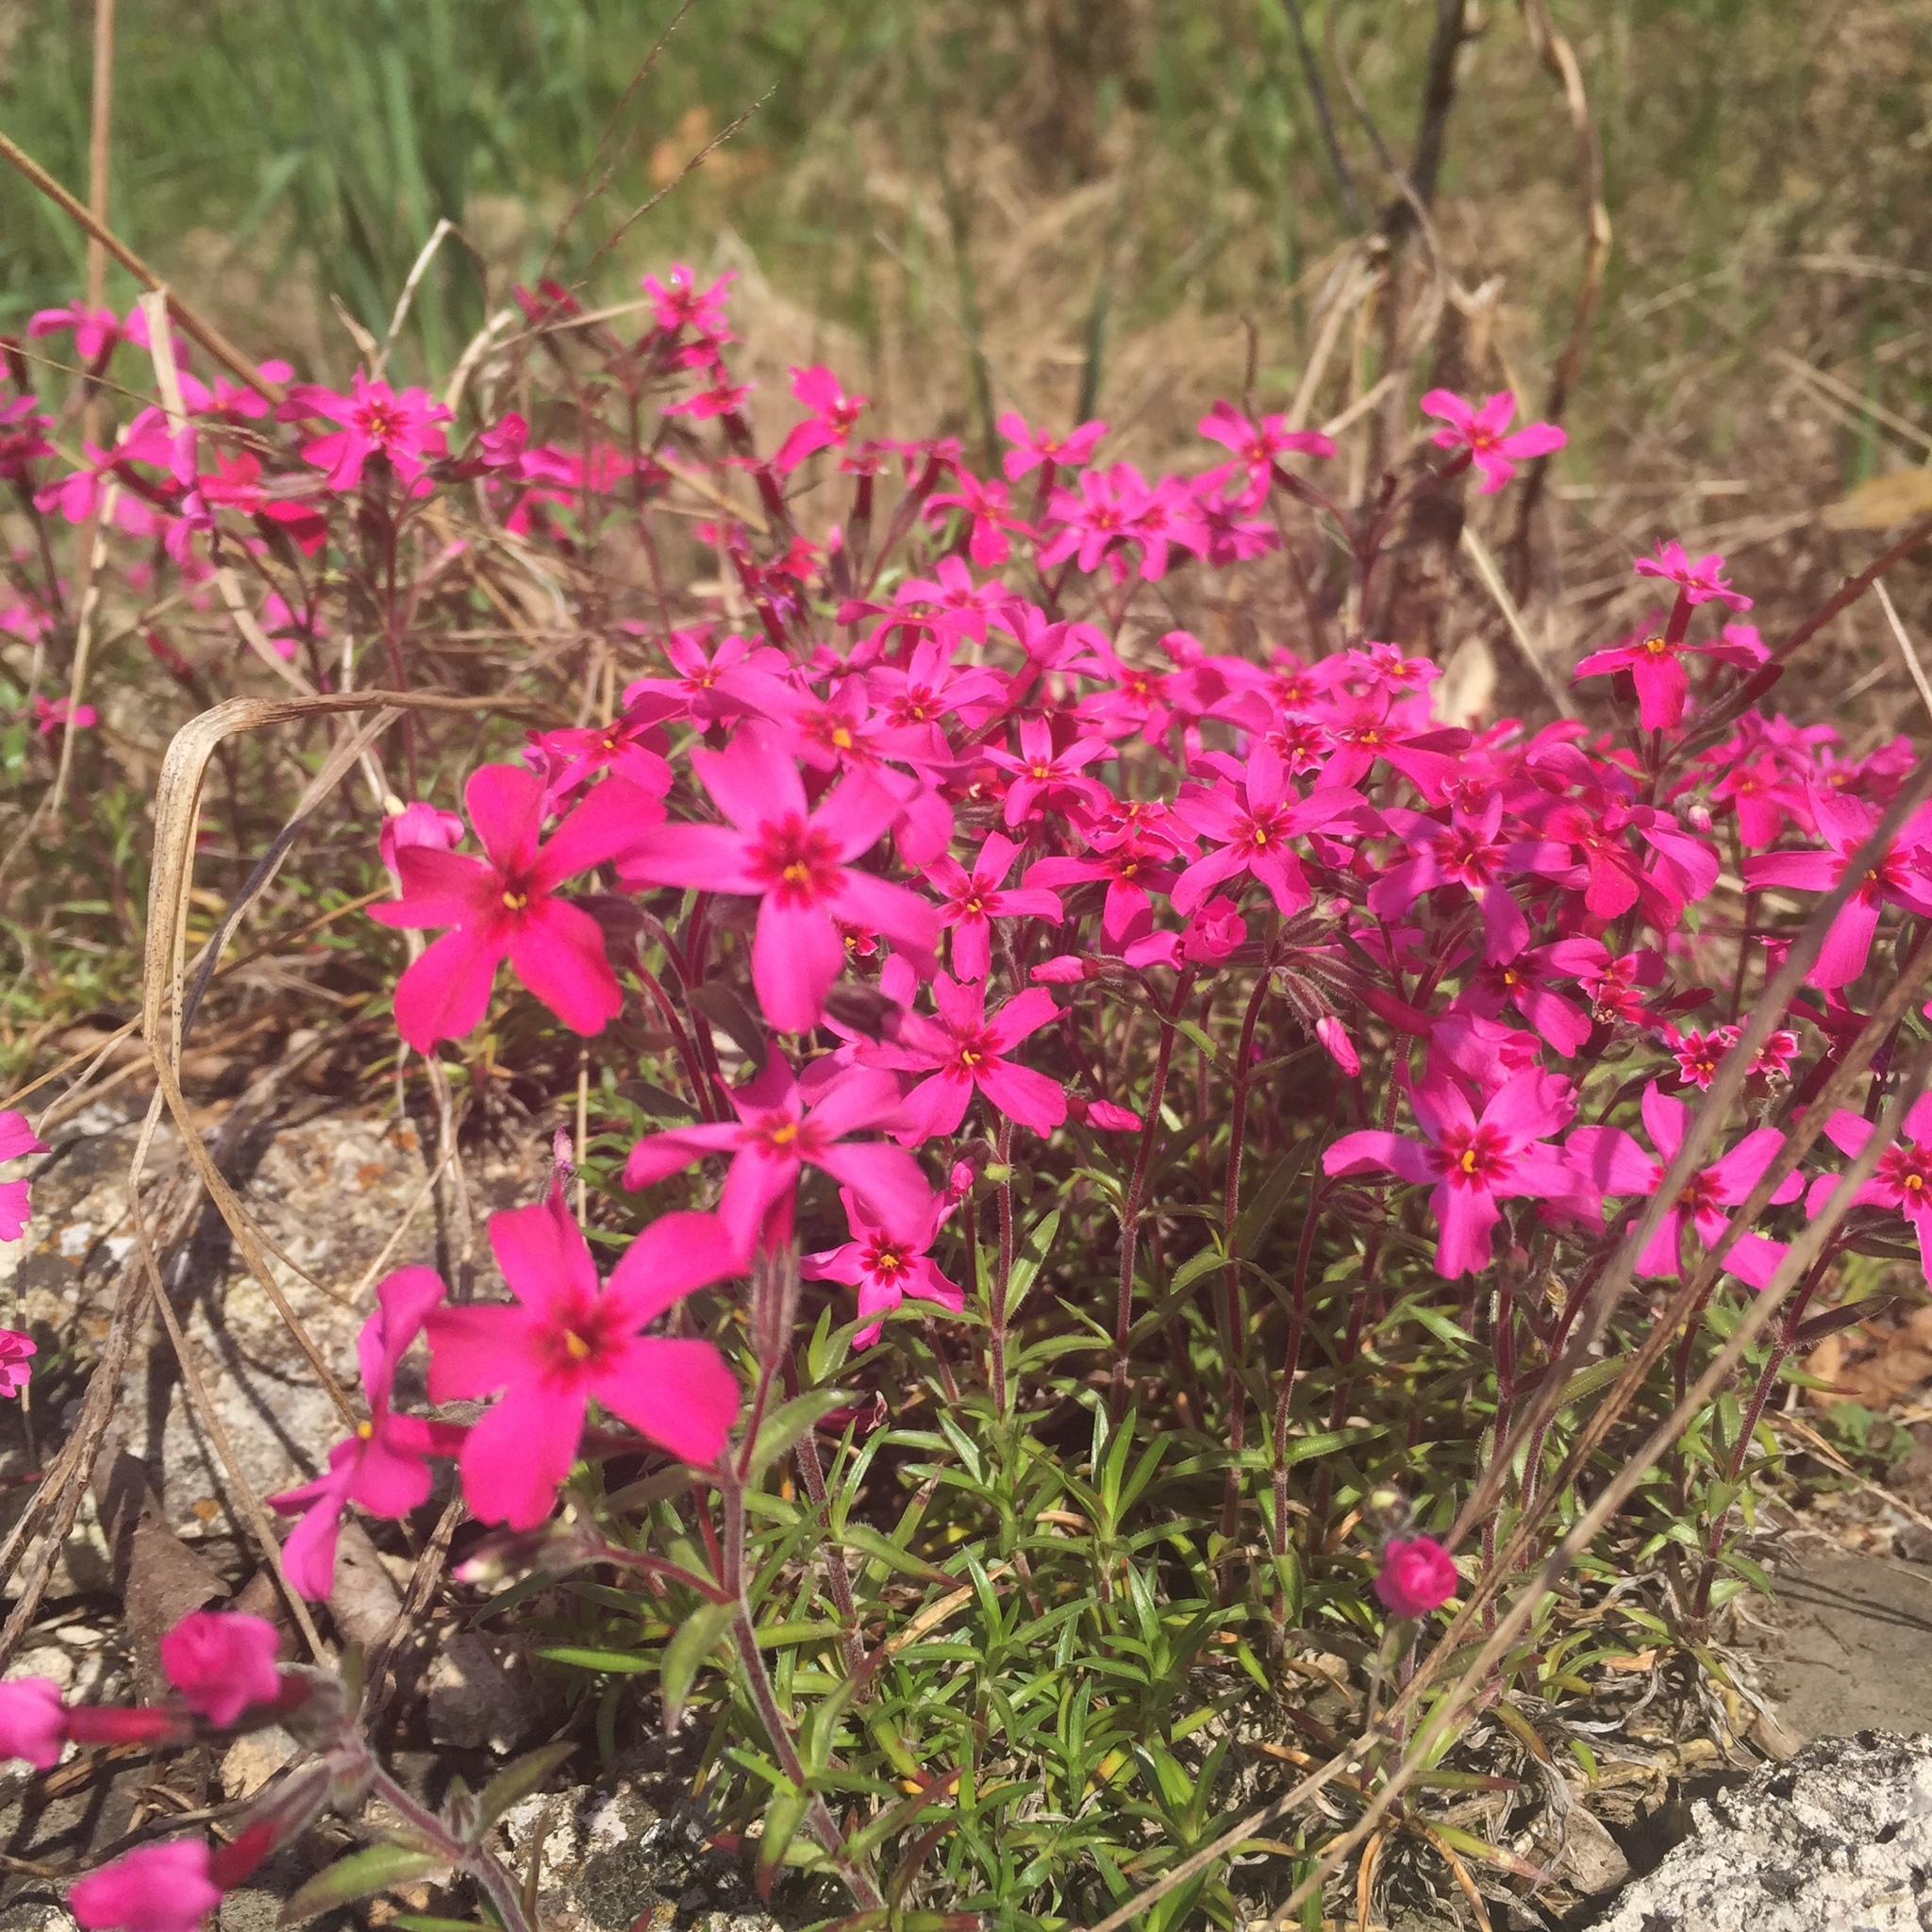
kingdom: Plantae
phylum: Tracheophyta
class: Magnoliopsida
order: Ericales
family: Polemoniaceae
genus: Phlox
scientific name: Phlox subulata
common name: Moss phlox
